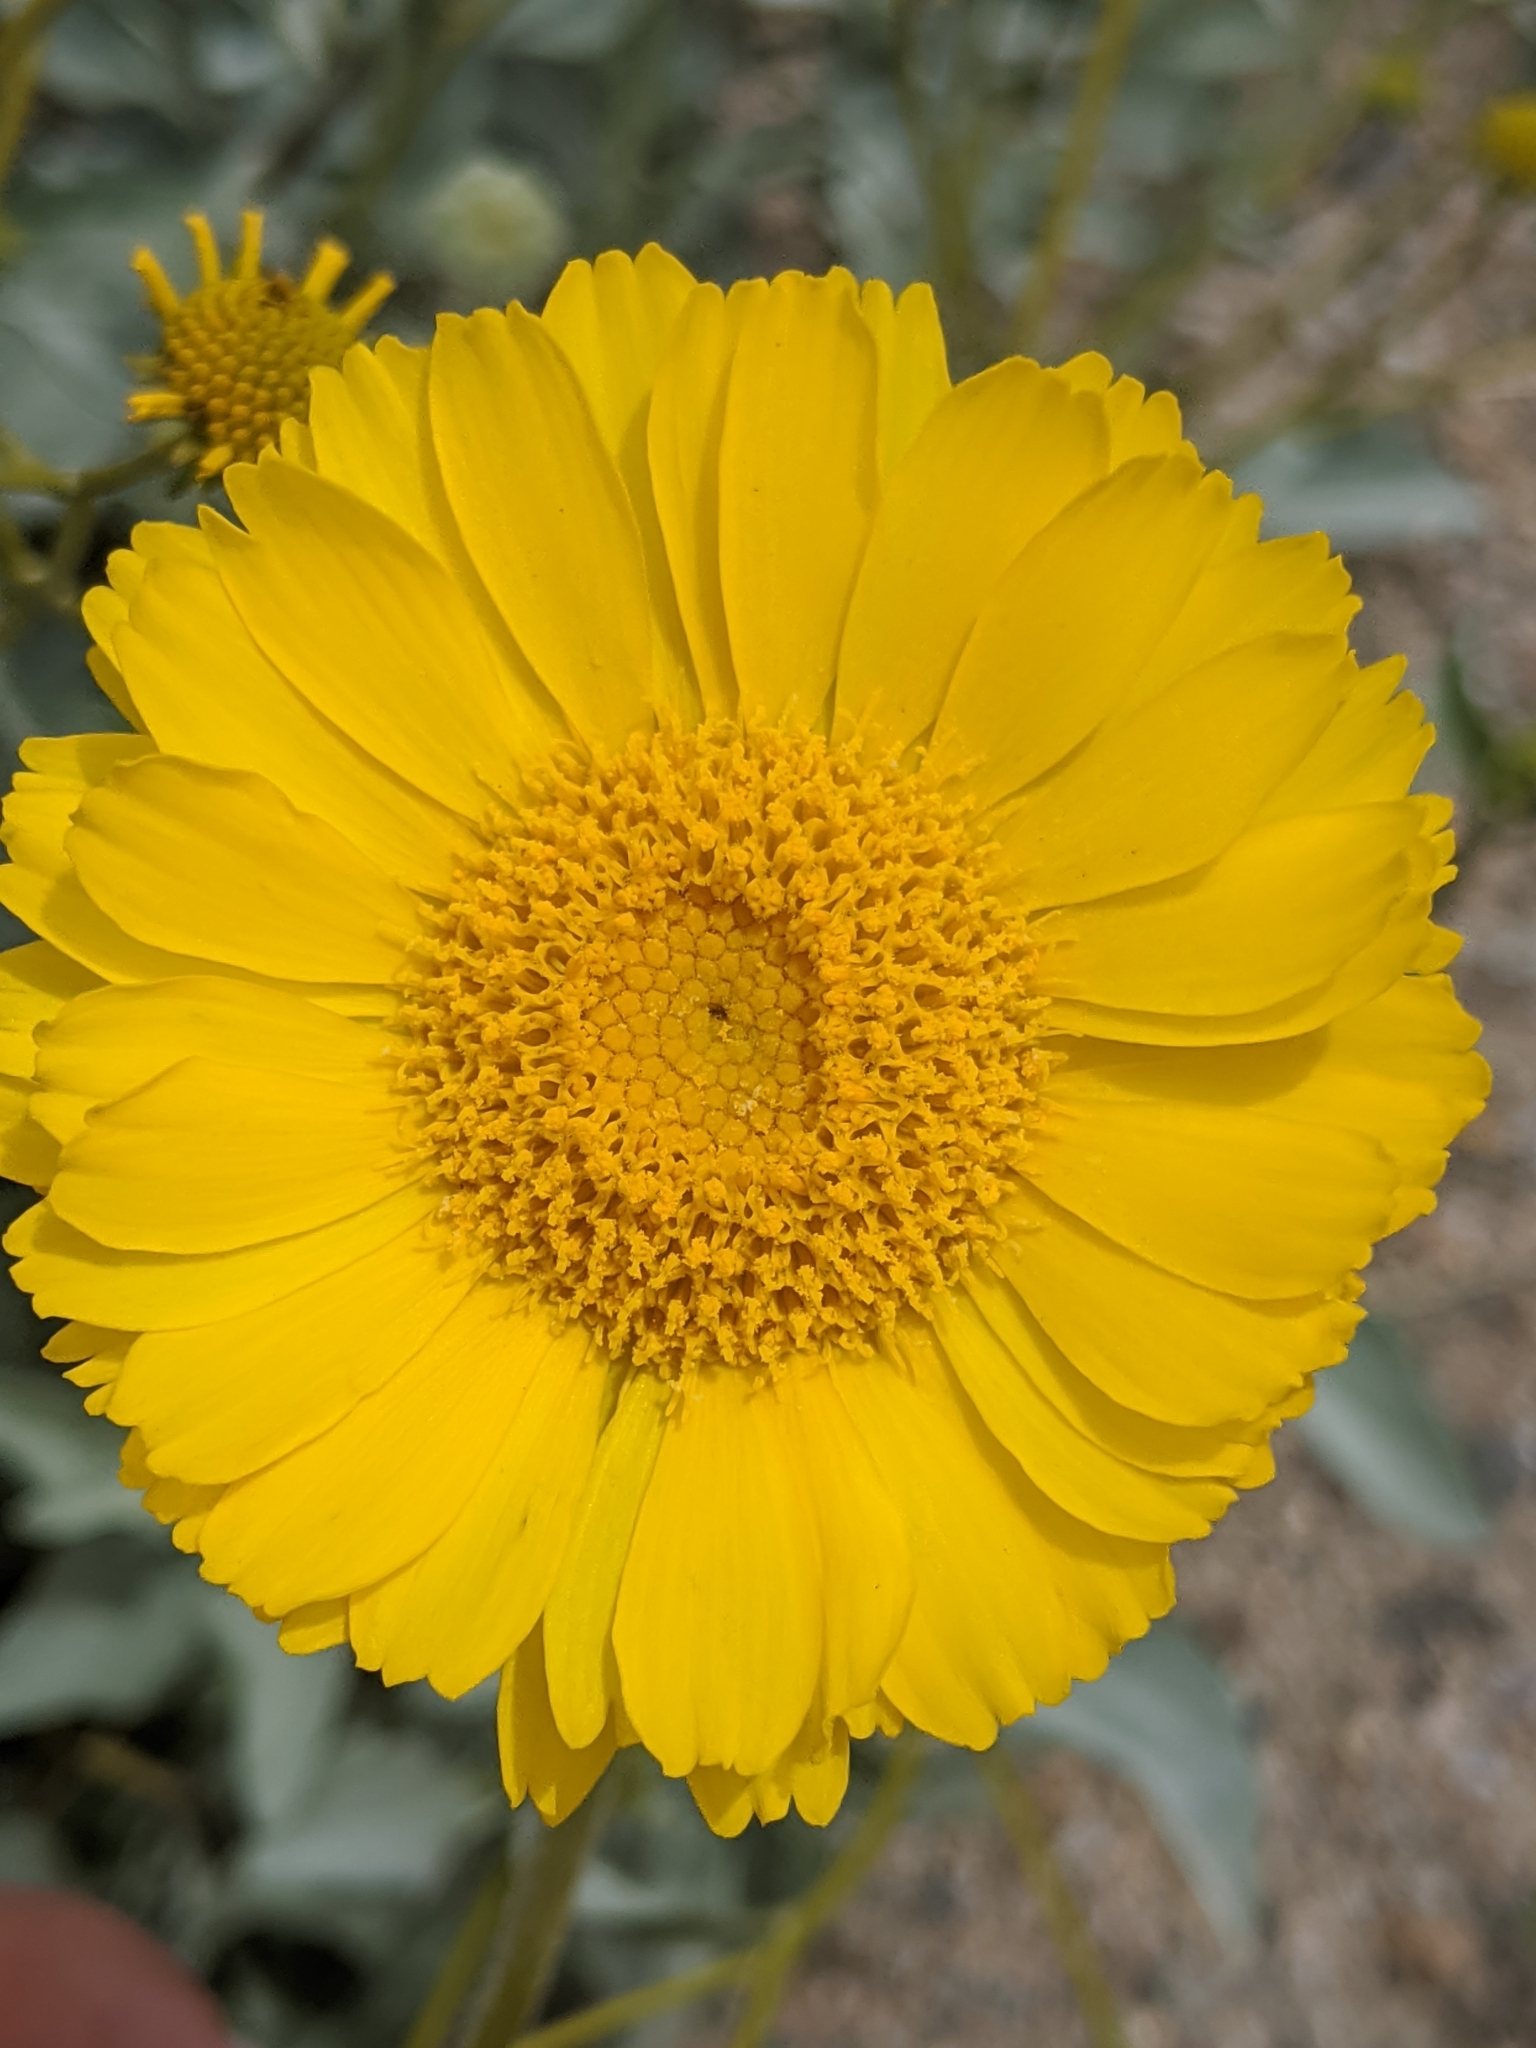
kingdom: Plantae
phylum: Tracheophyta
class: Magnoliopsida
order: Asterales
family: Asteraceae
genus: Baileya
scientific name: Baileya multiradiata
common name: Desert-marigold
